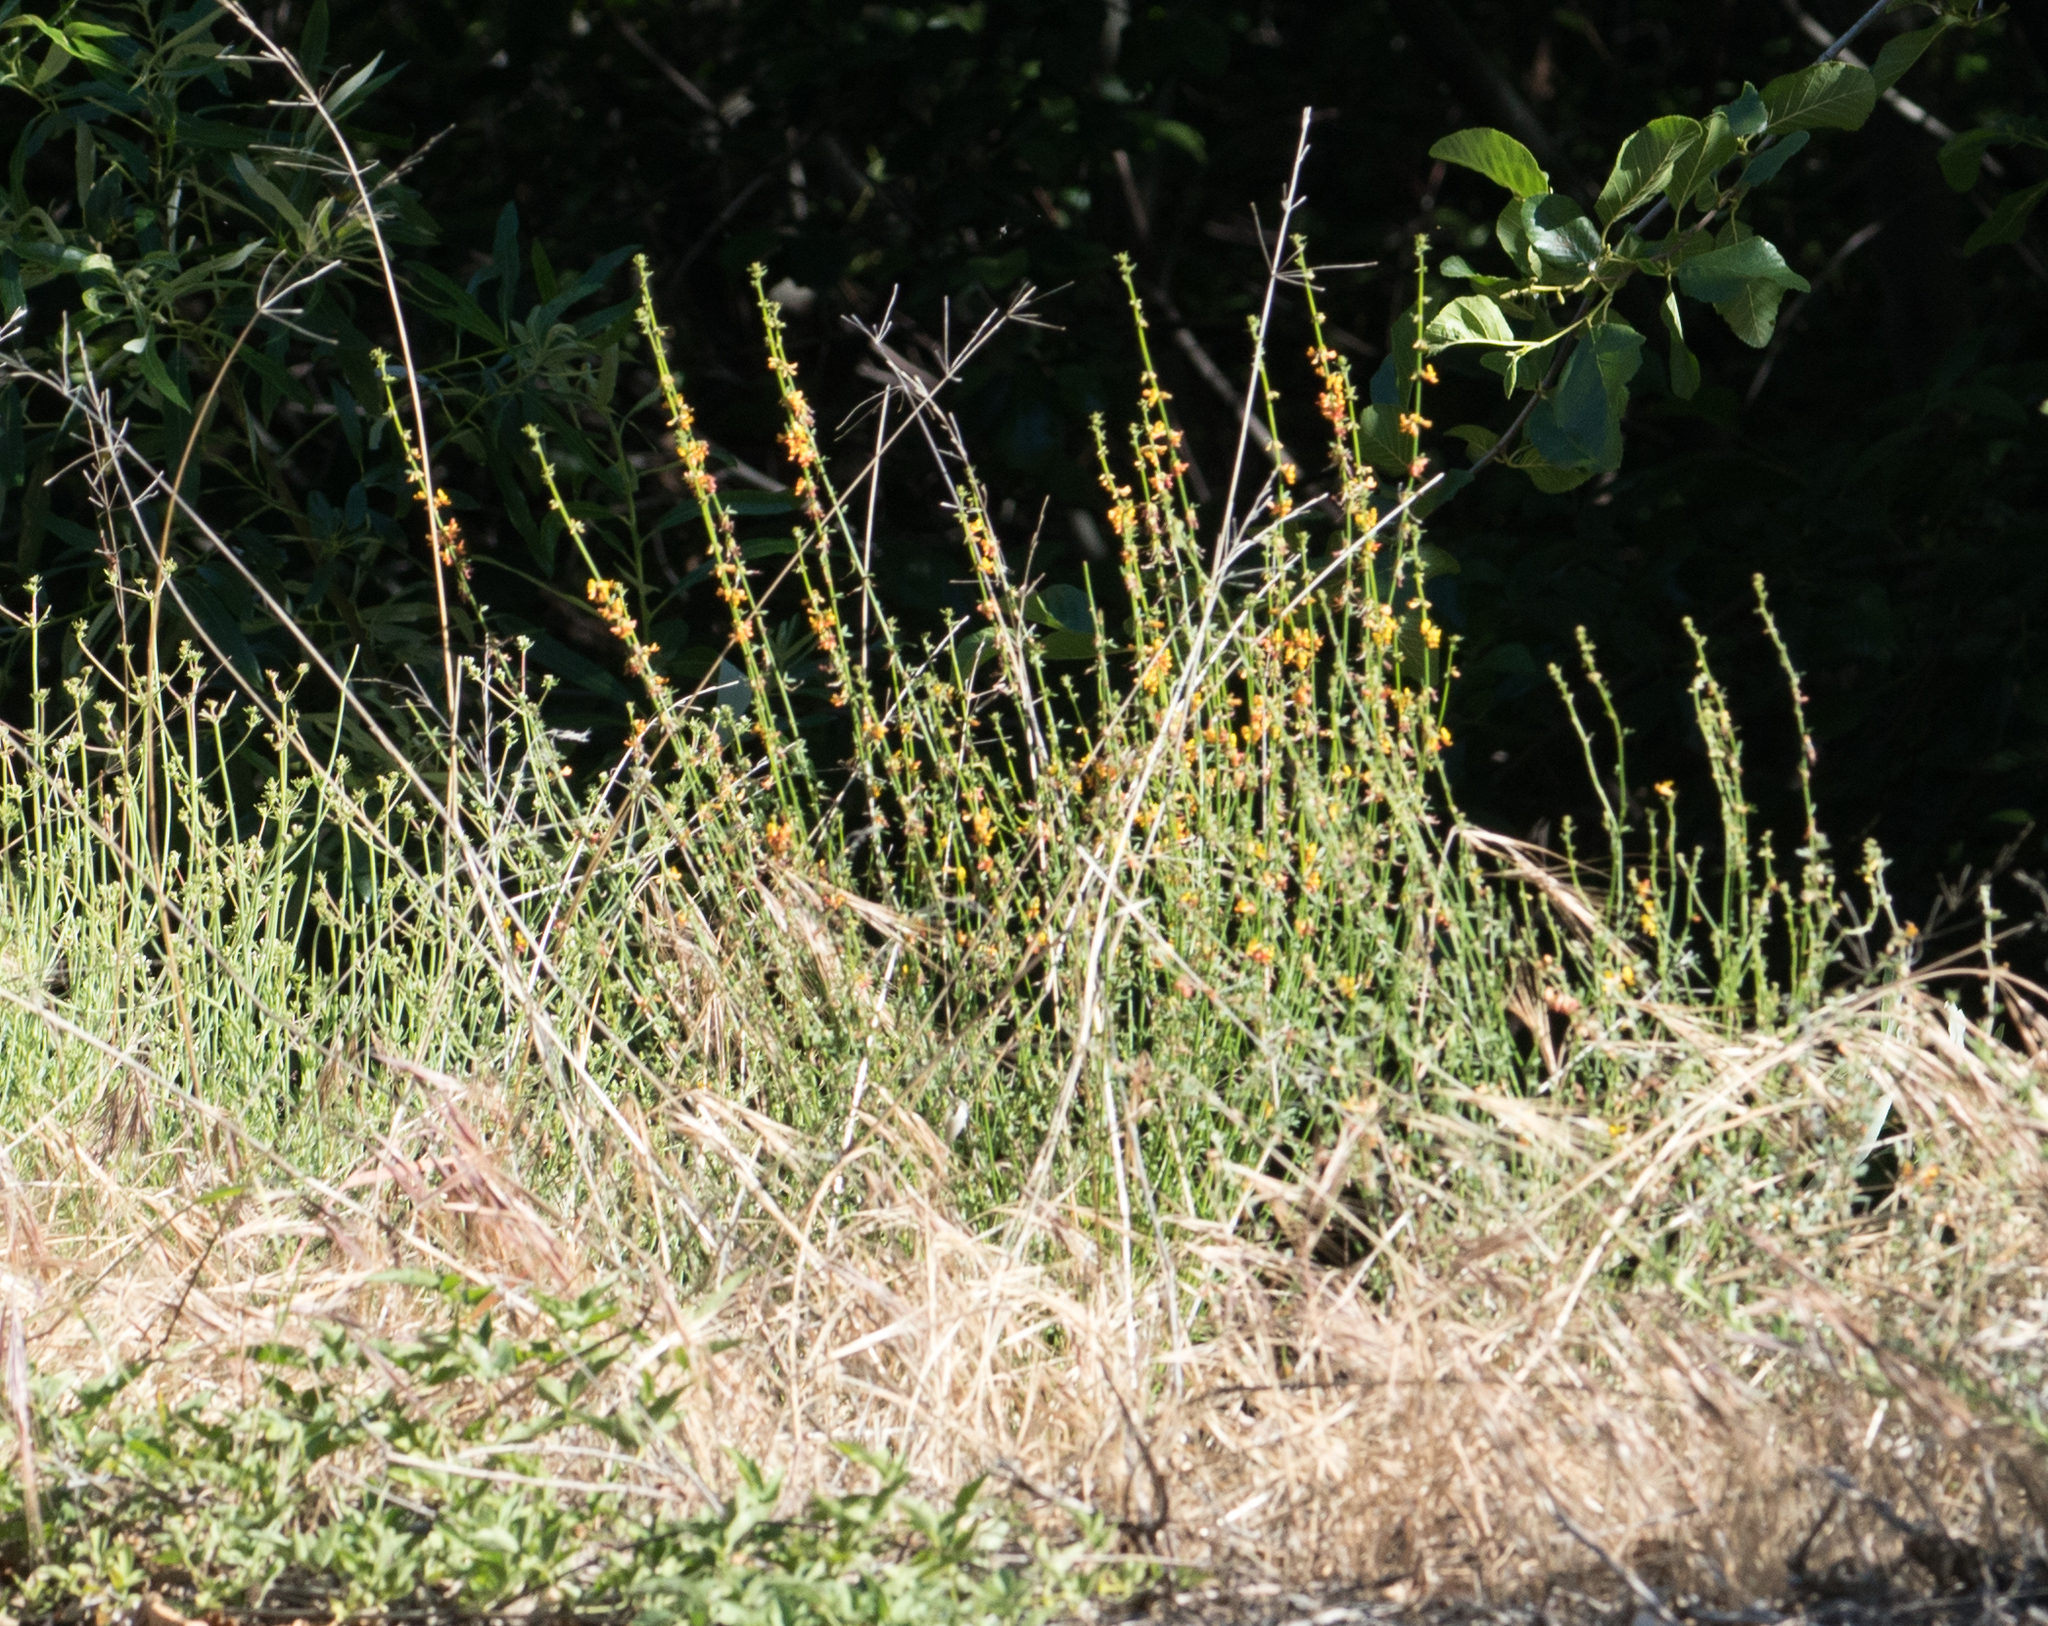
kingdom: Plantae
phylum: Tracheophyta
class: Magnoliopsida
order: Fabales
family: Fabaceae
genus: Acmispon
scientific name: Acmispon glaber
